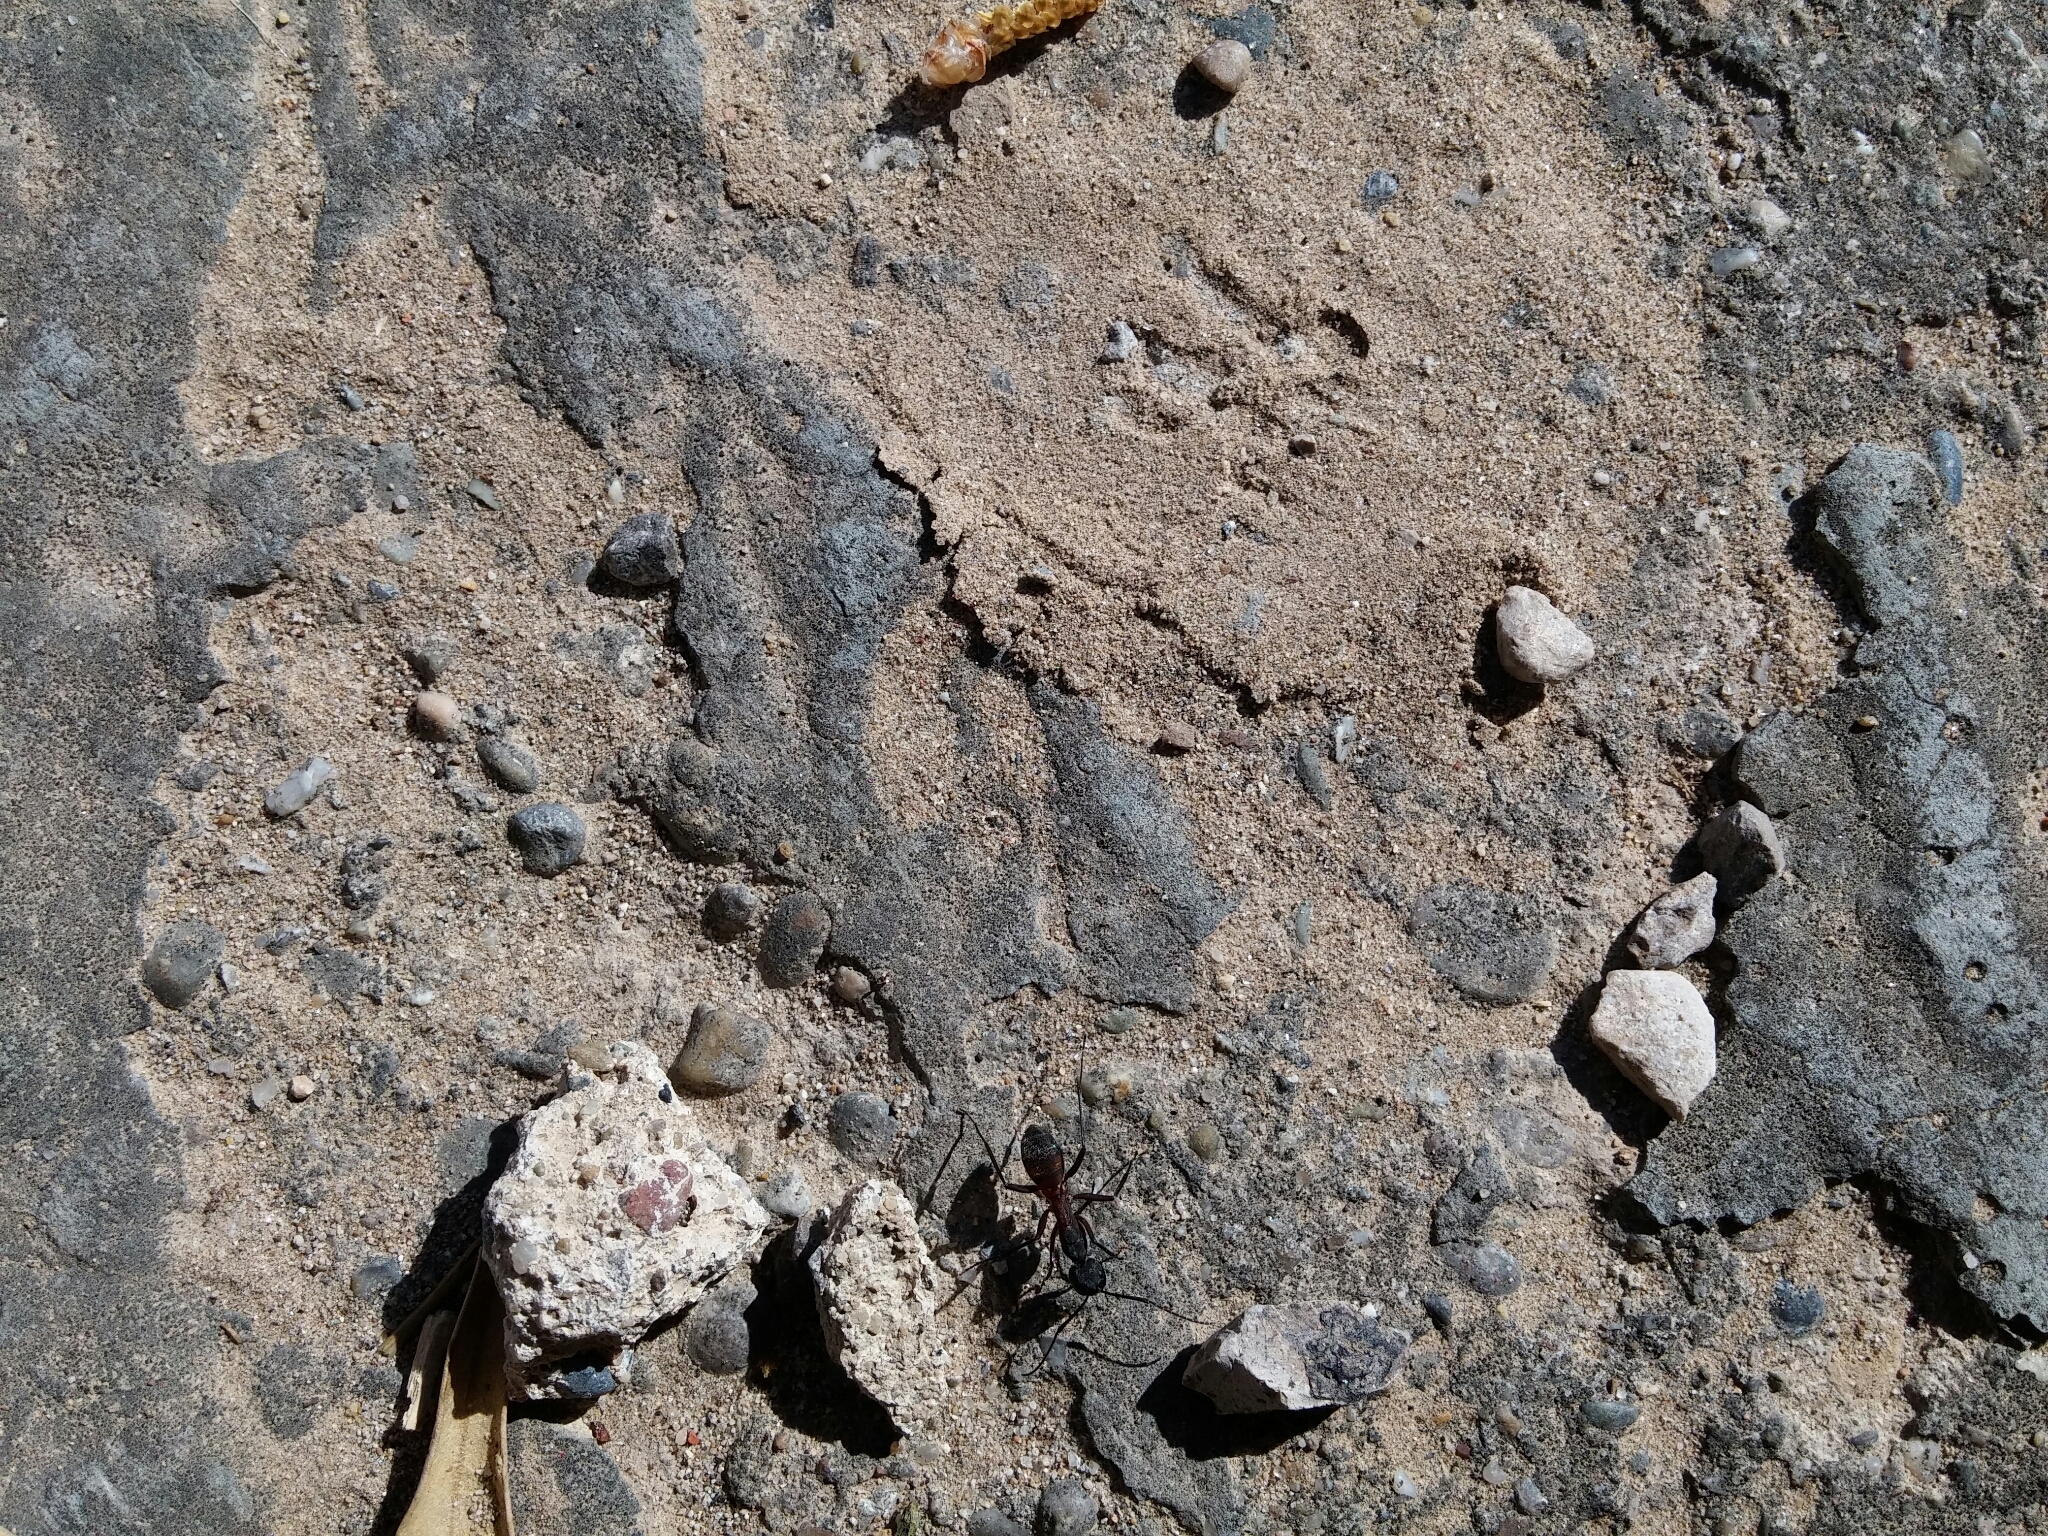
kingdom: Animalia
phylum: Arthropoda
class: Insecta
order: Hymenoptera
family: Formicidae
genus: Camponotus
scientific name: Camponotus cruentatus
